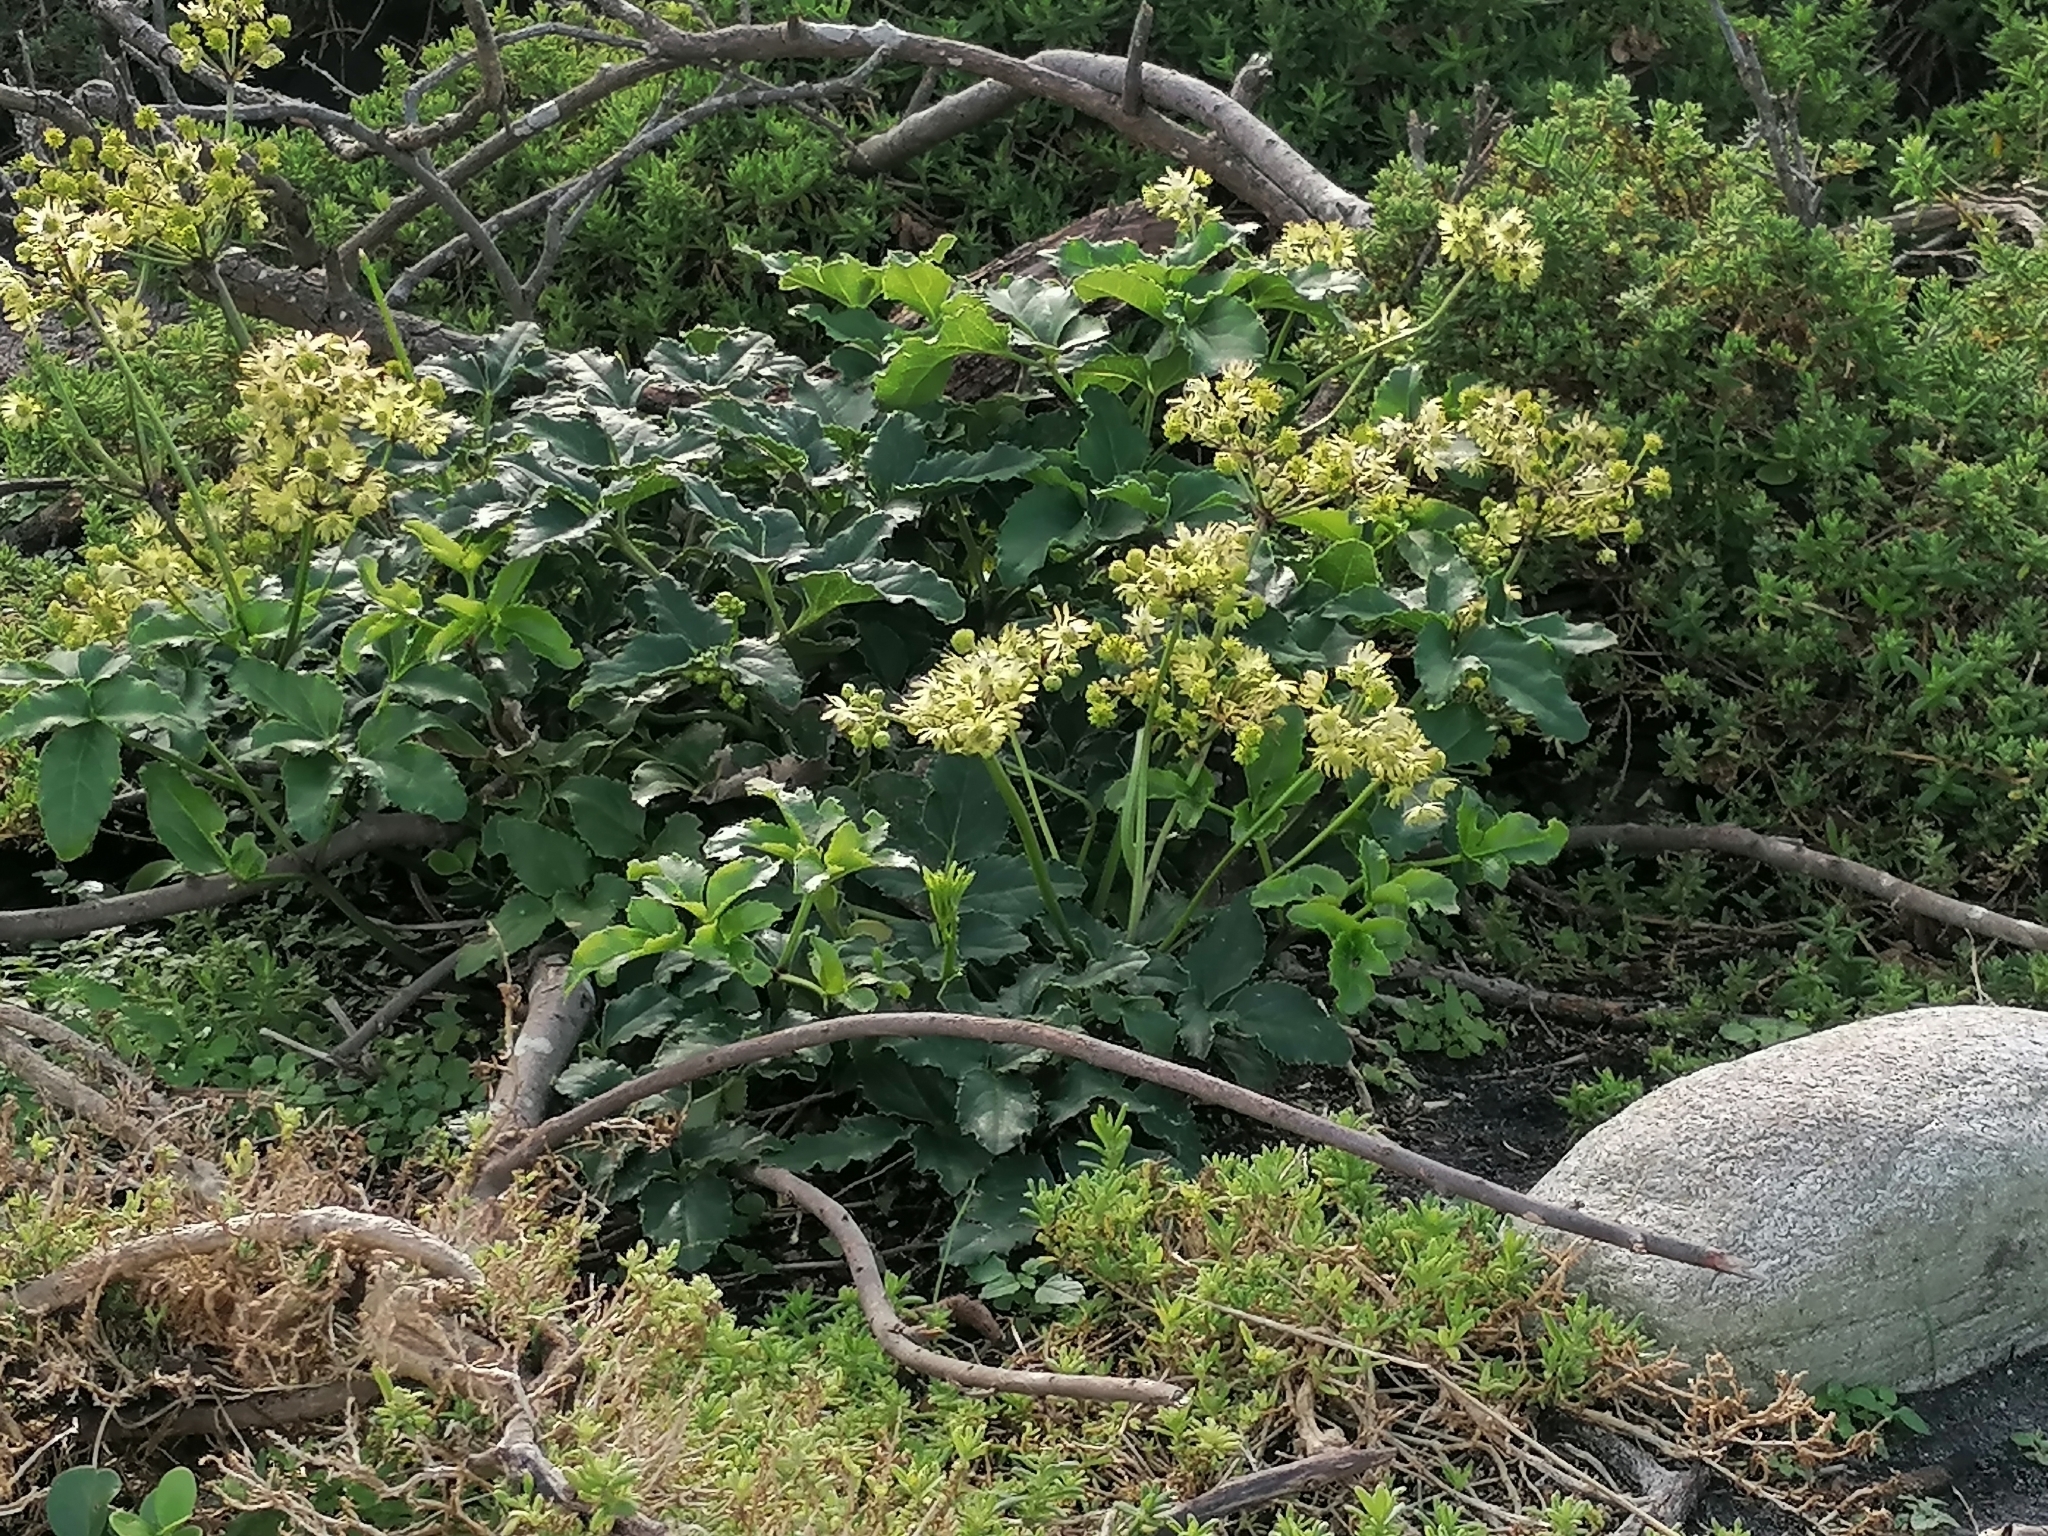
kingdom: Plantae
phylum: Tracheophyta
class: Magnoliopsida
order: Ranunculales
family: Ranunculaceae
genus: Knowltonia
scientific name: Knowltonia vesicatoria
